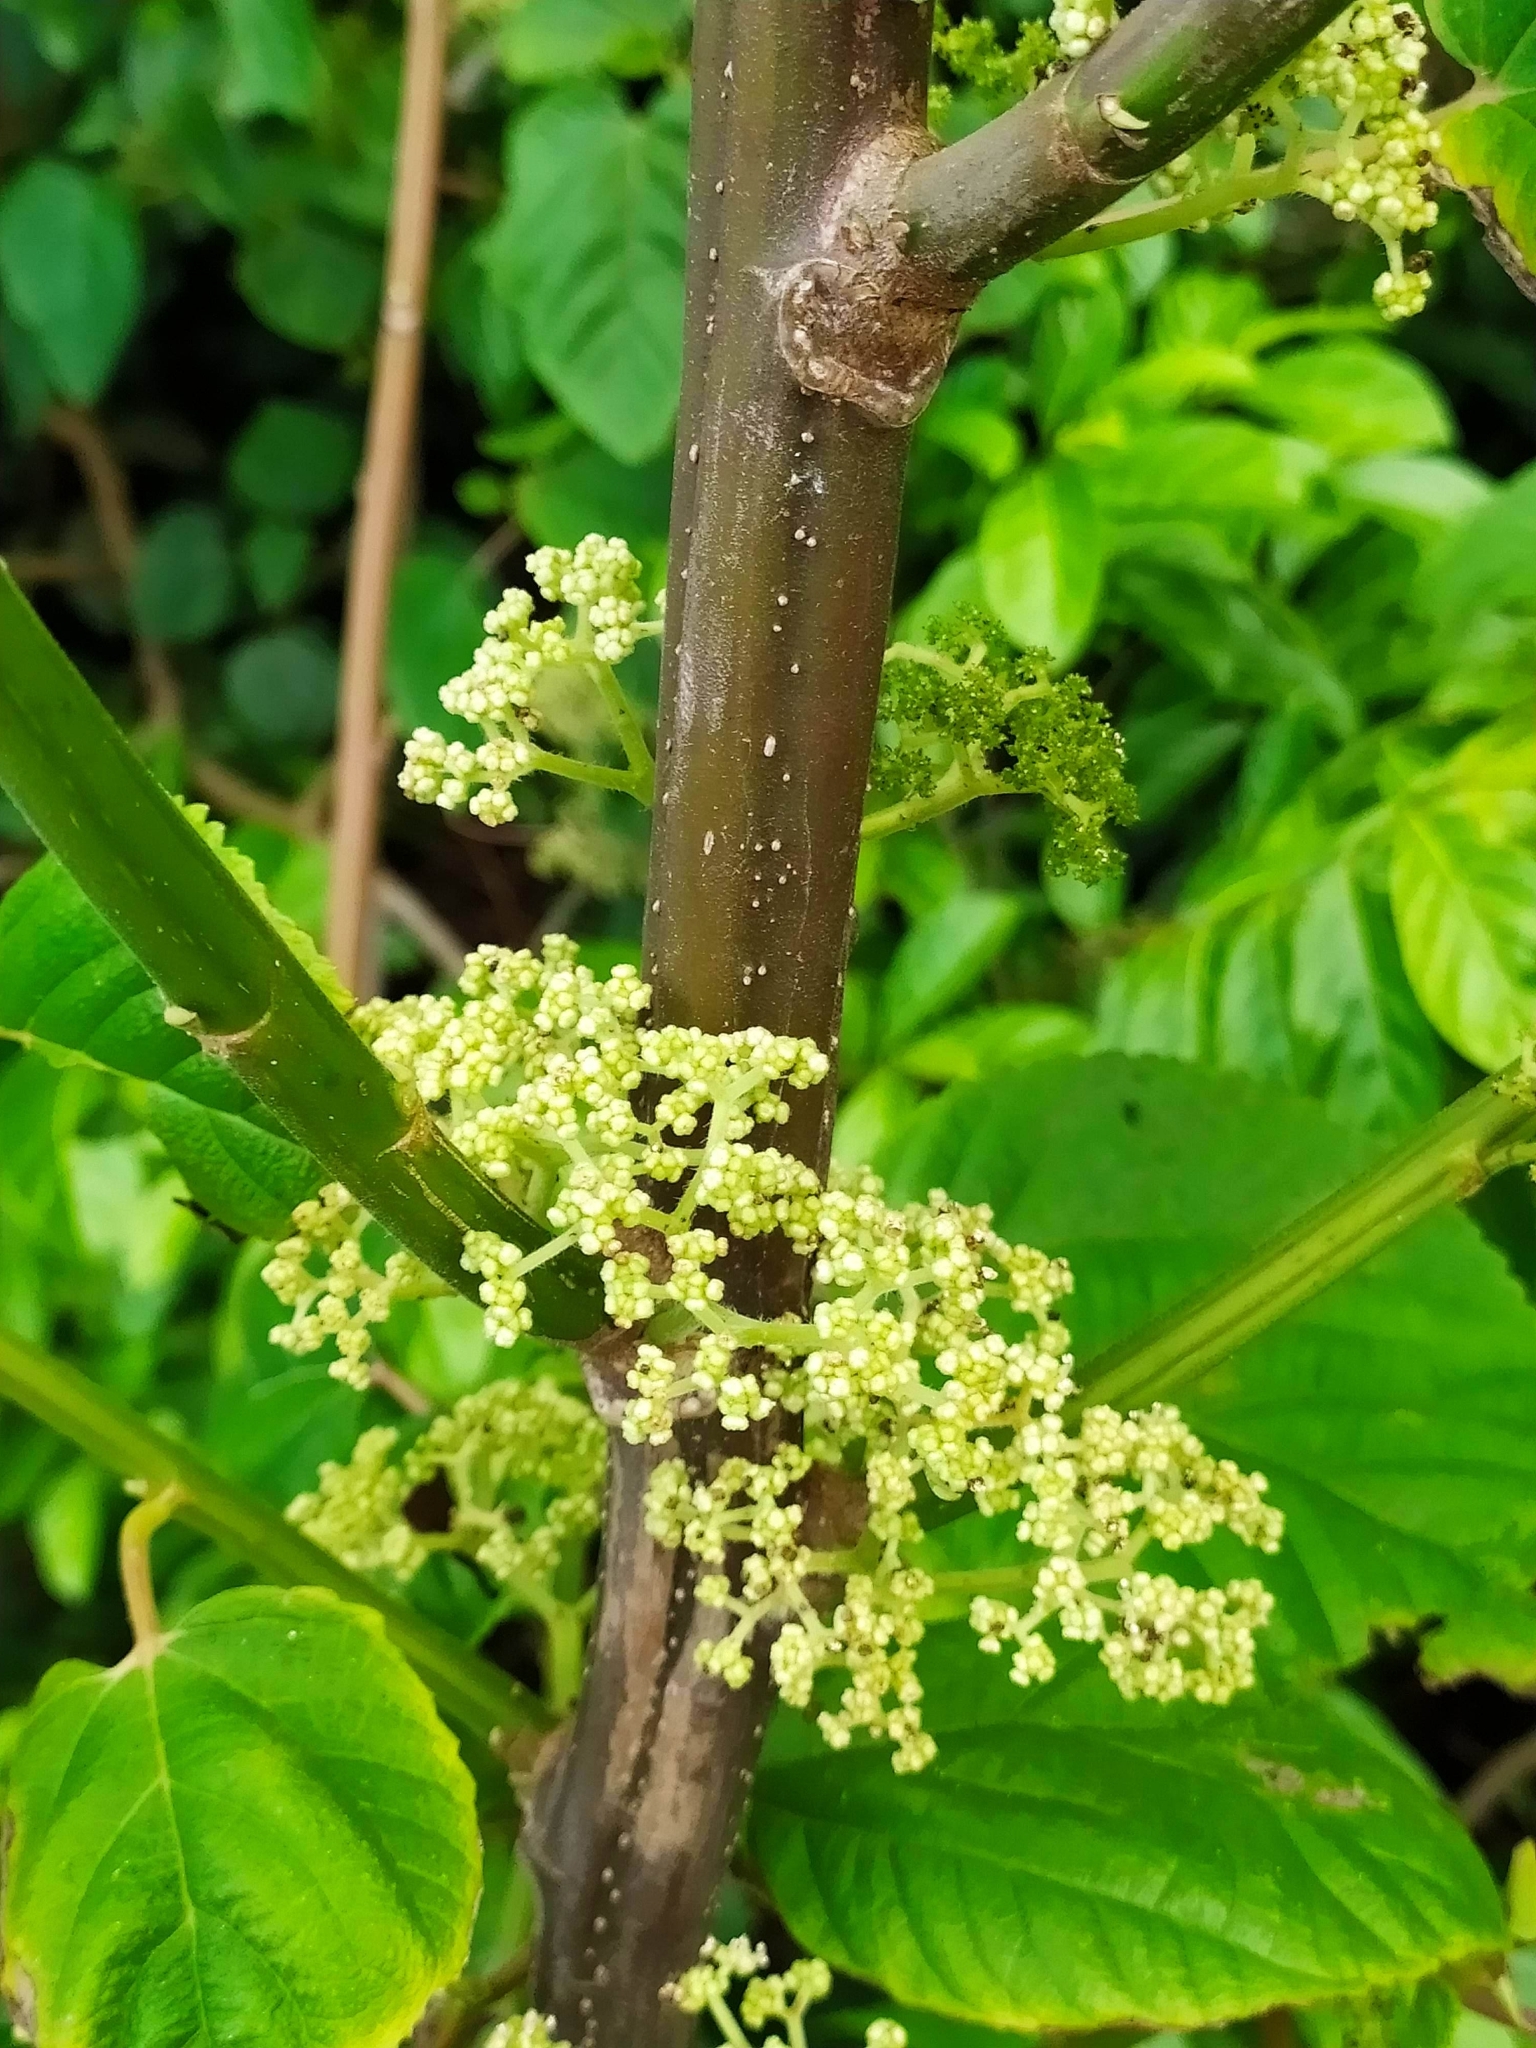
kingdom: Plantae
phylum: Tracheophyta
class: Magnoliopsida
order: Rosales
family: Urticaceae
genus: Urera
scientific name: Urera caracasana
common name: Flameberry
